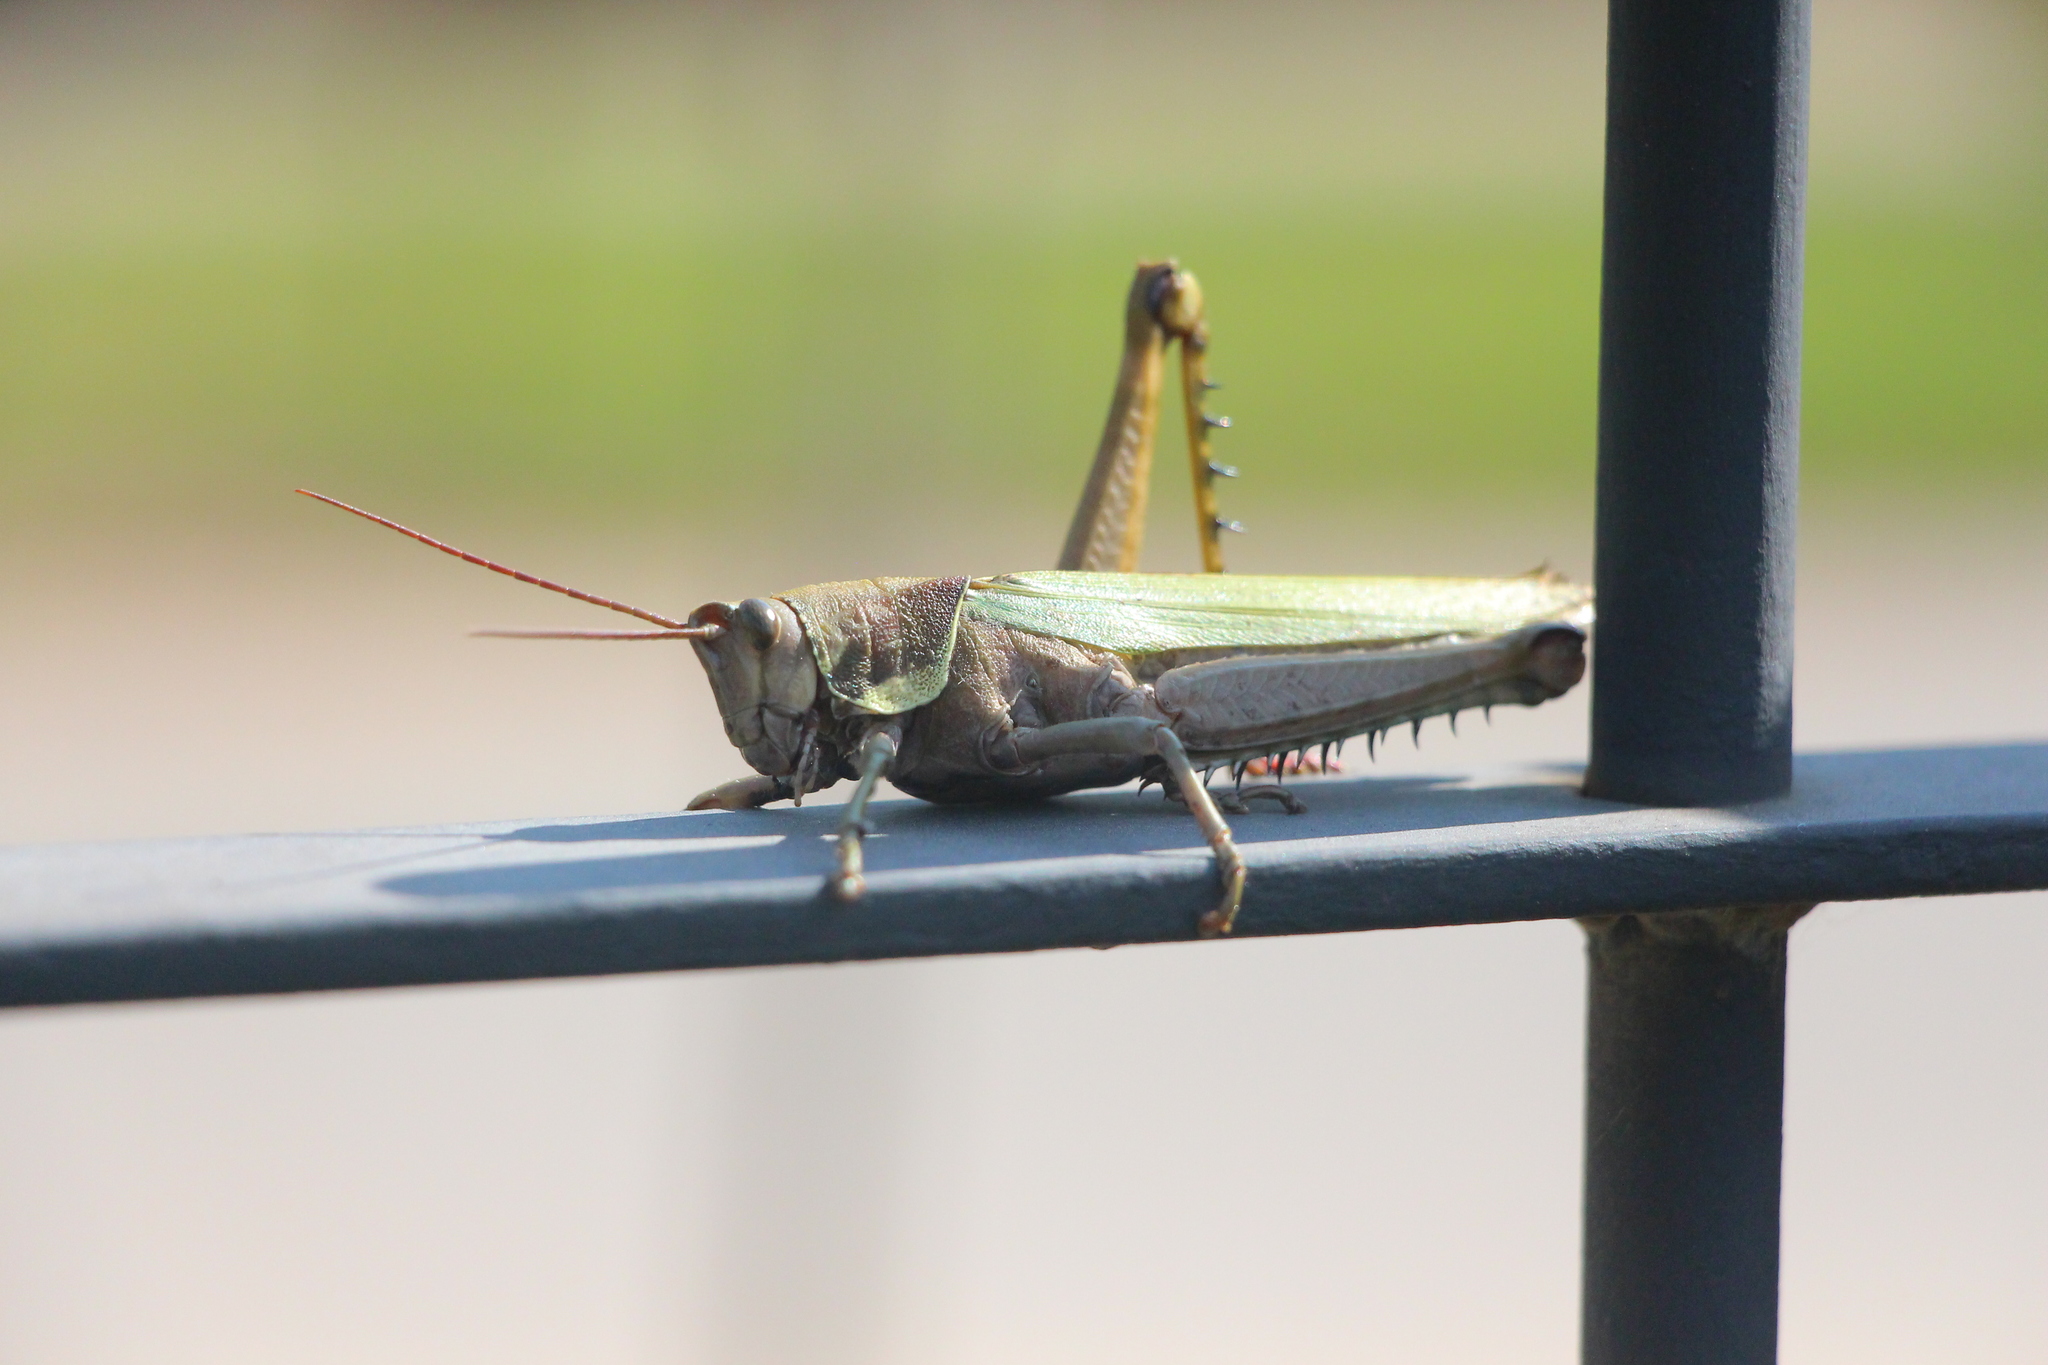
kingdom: Animalia
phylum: Arthropoda
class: Insecta
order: Orthoptera
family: Romaleidae
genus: Coryacris
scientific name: Coryacris angustipennis
